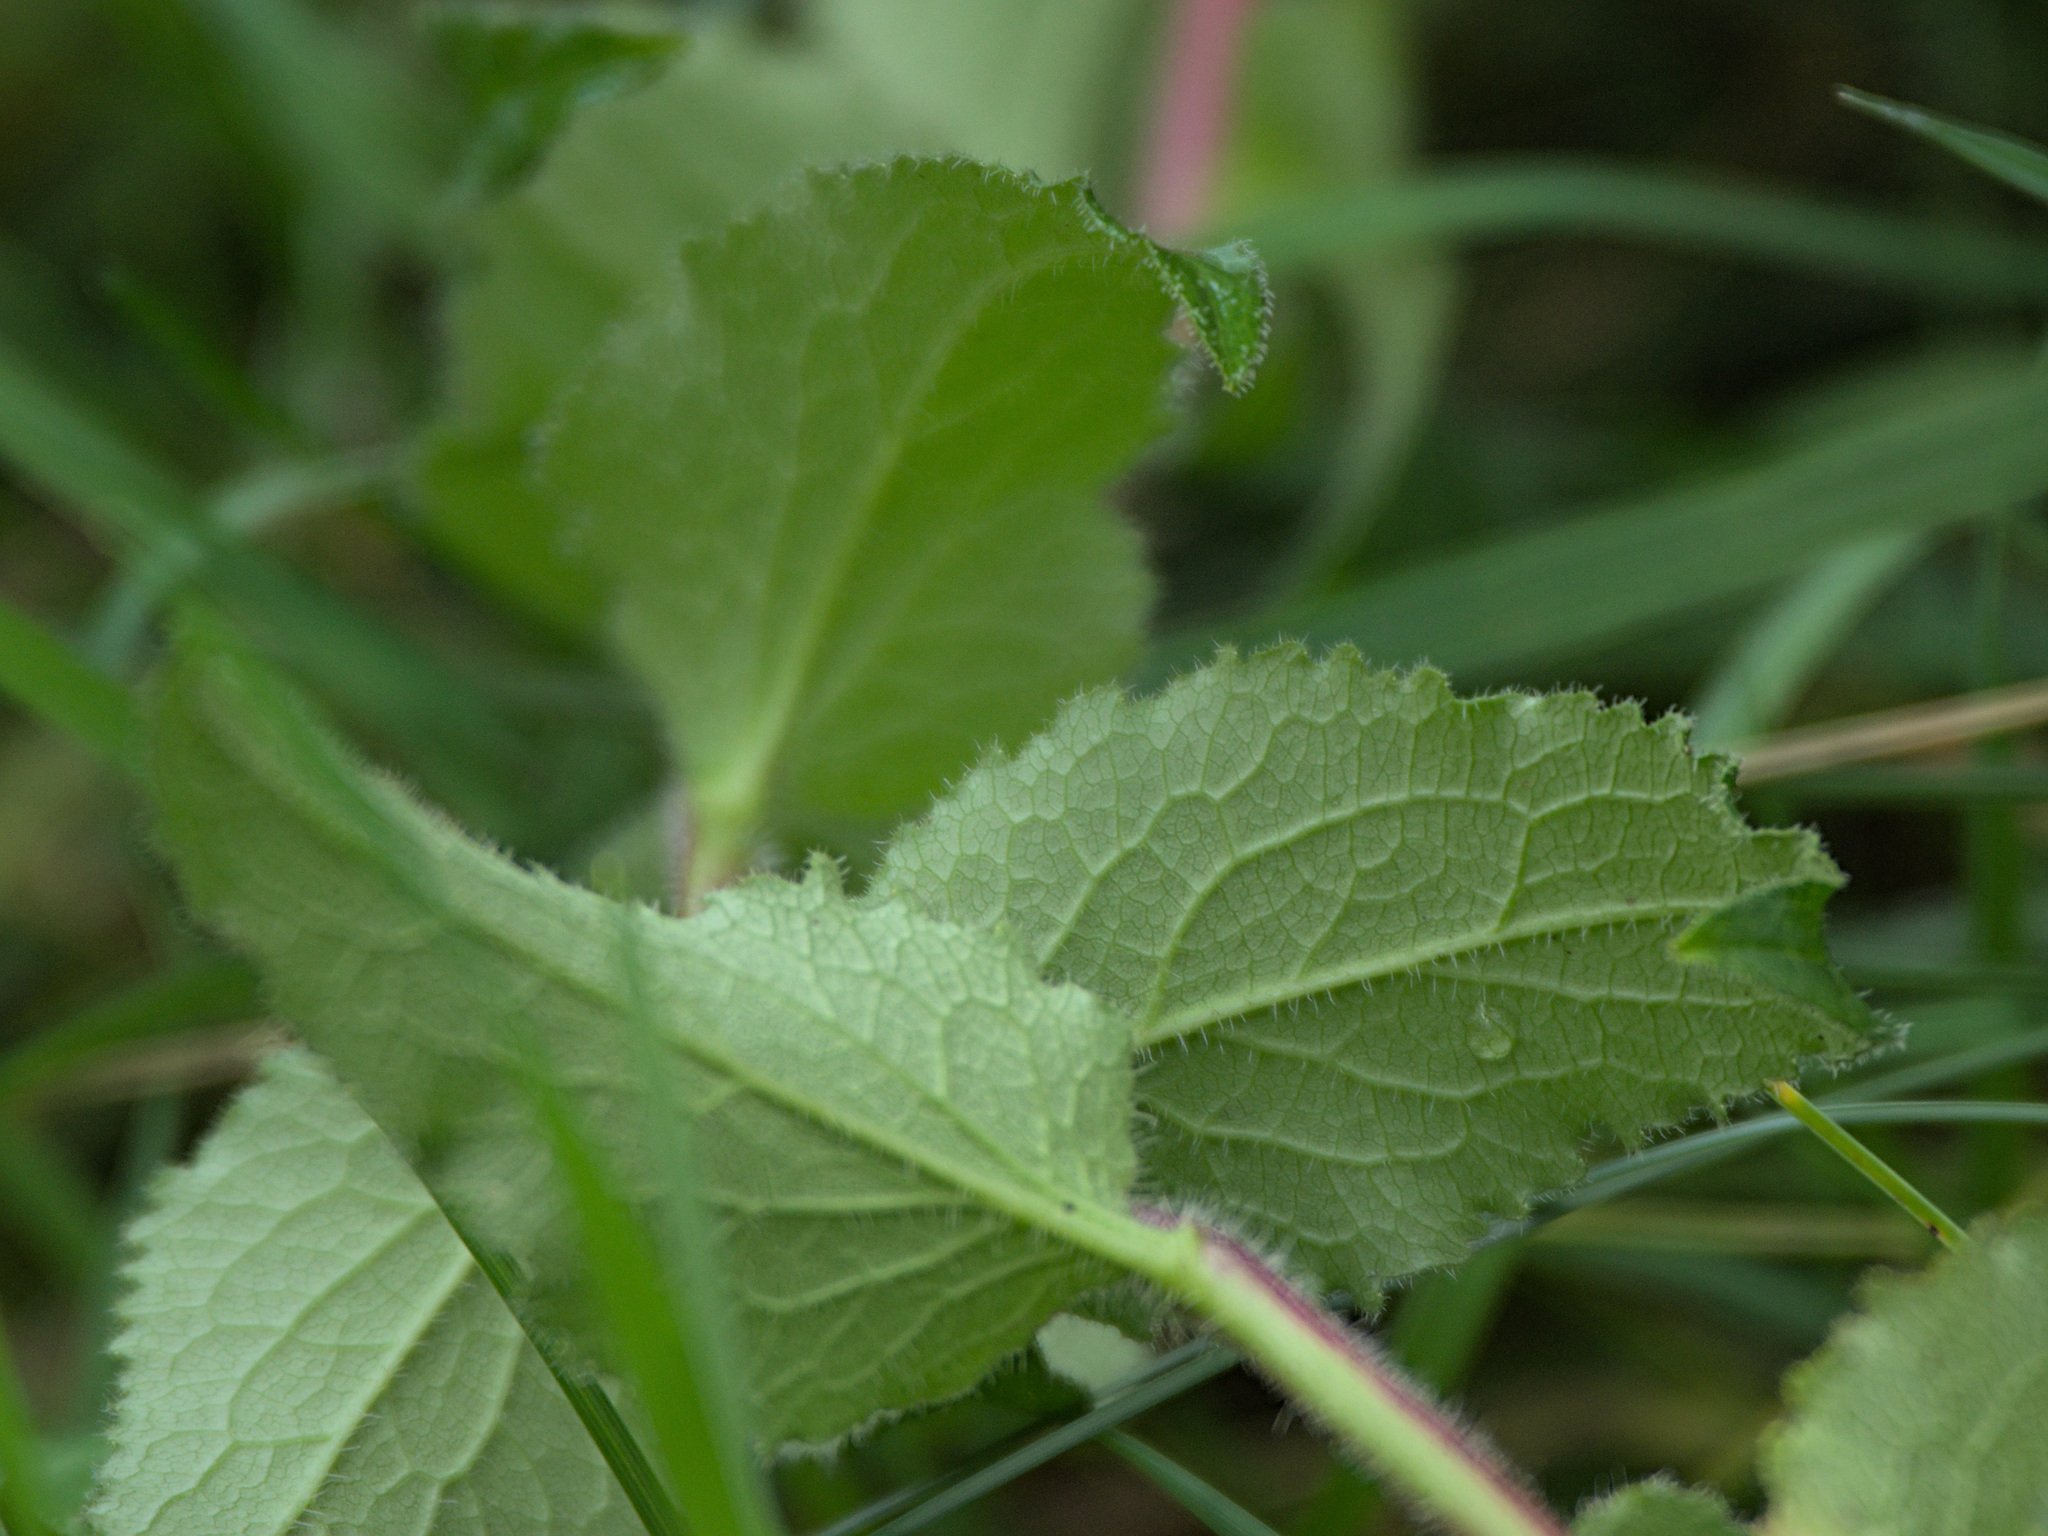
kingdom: Plantae
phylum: Tracheophyta
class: Magnoliopsida
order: Asterales
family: Campanulaceae
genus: Campanula
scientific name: Campanula glomerata
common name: Clustered bellflower
